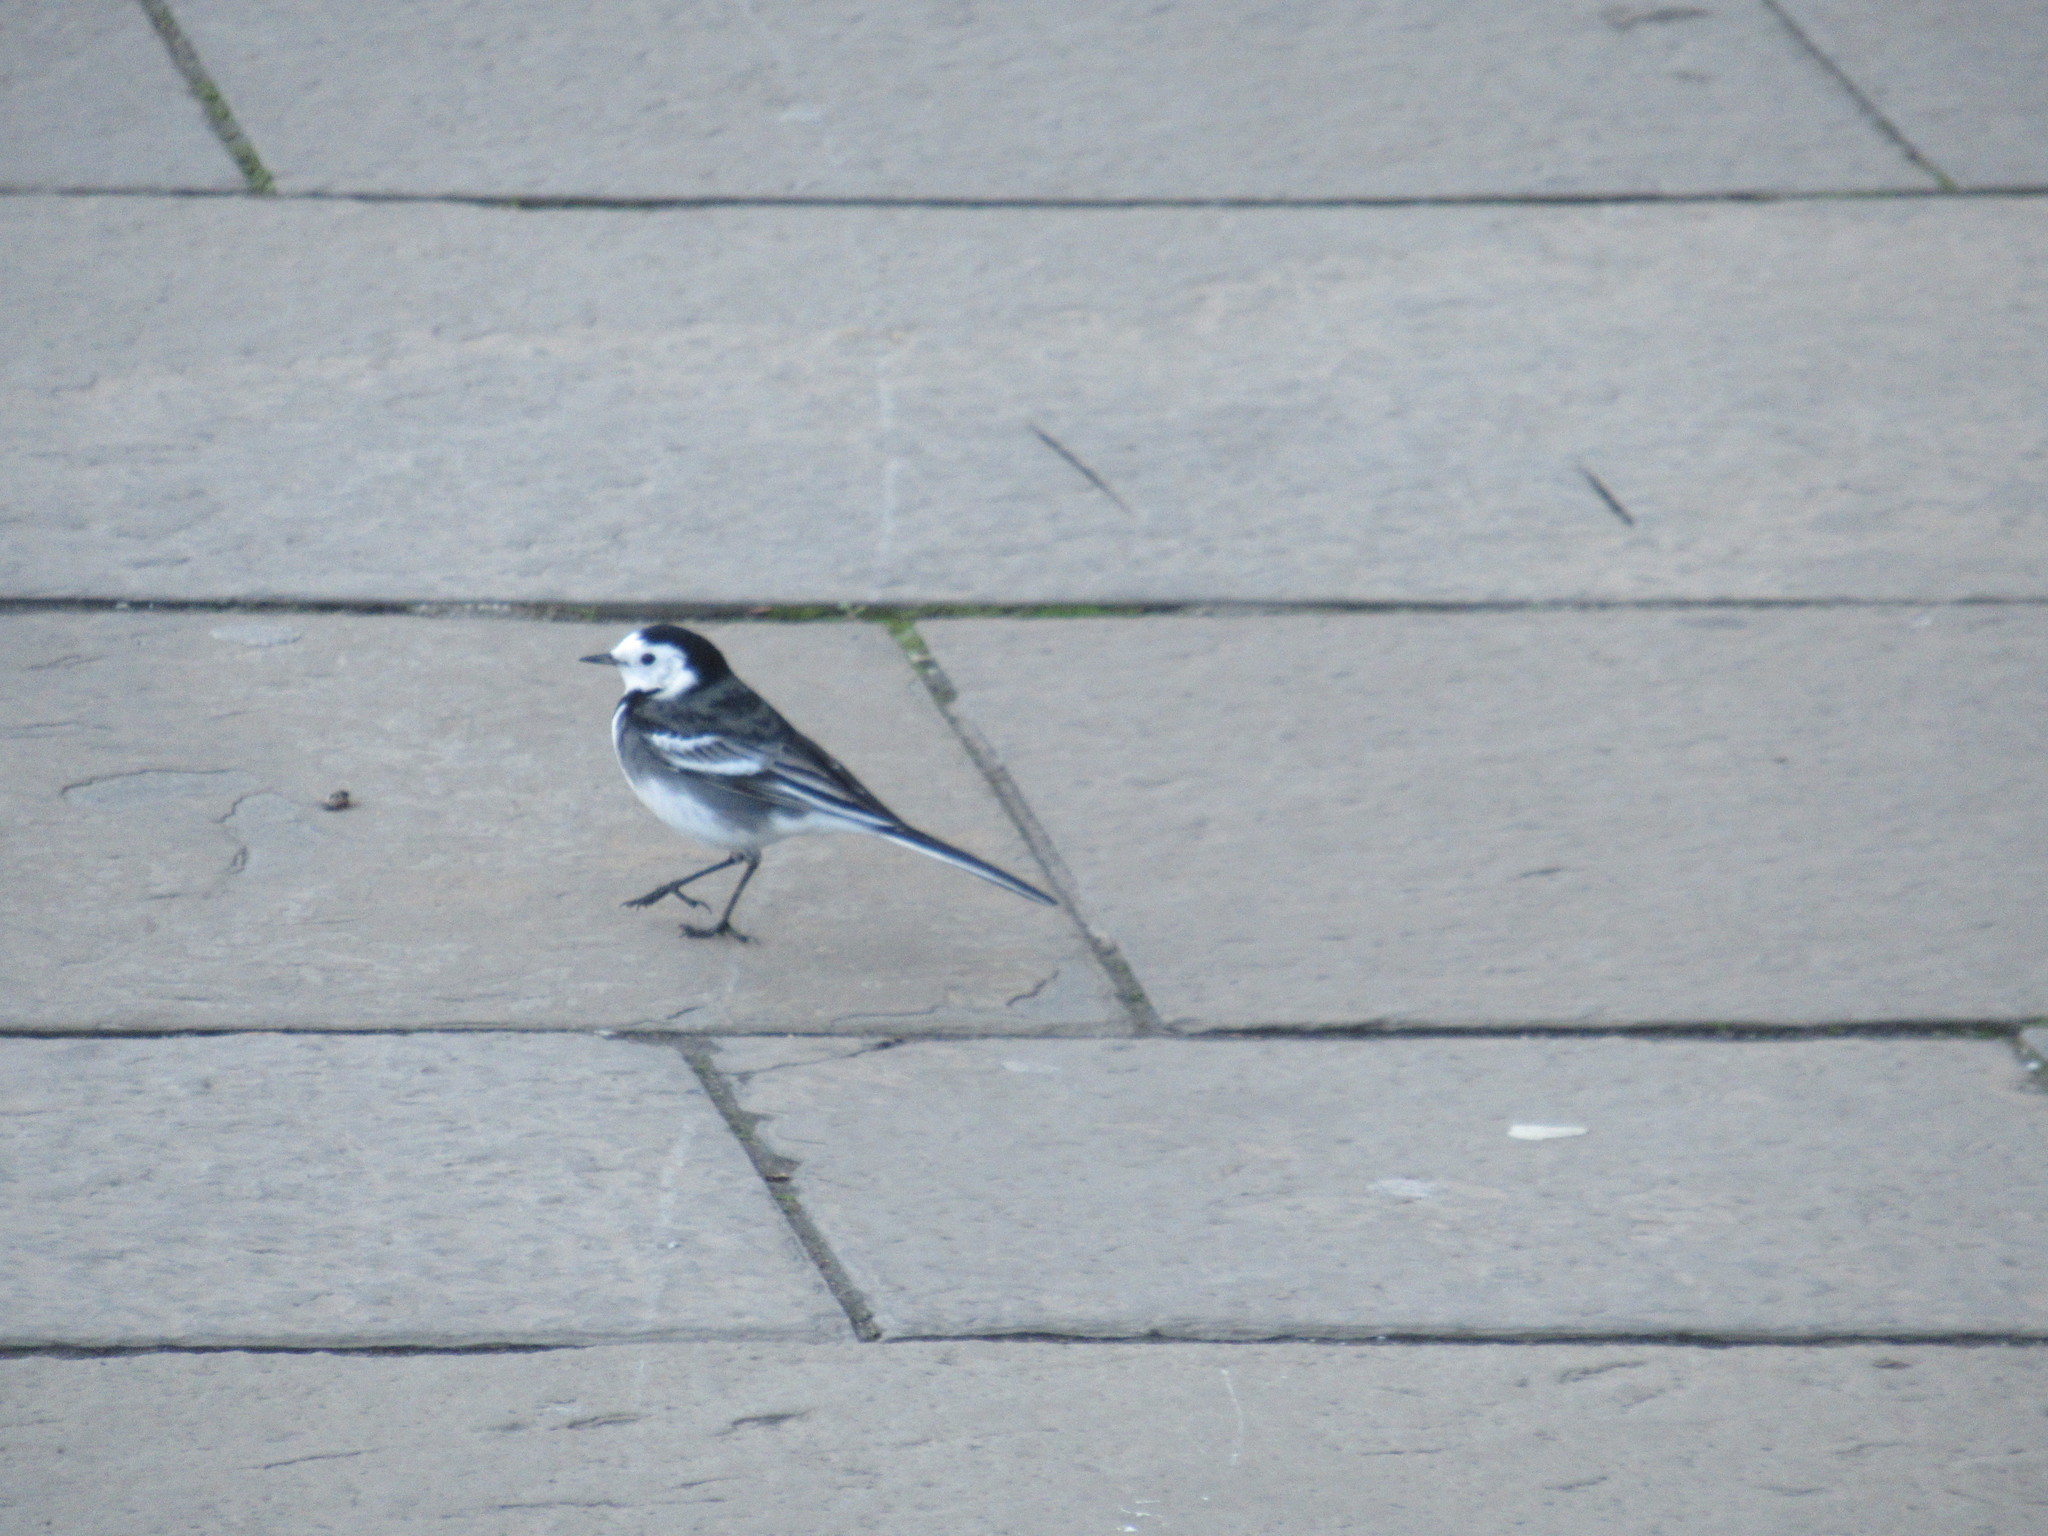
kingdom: Animalia
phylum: Chordata
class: Aves
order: Passeriformes
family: Motacillidae
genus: Motacilla
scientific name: Motacilla alba
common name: White wagtail
